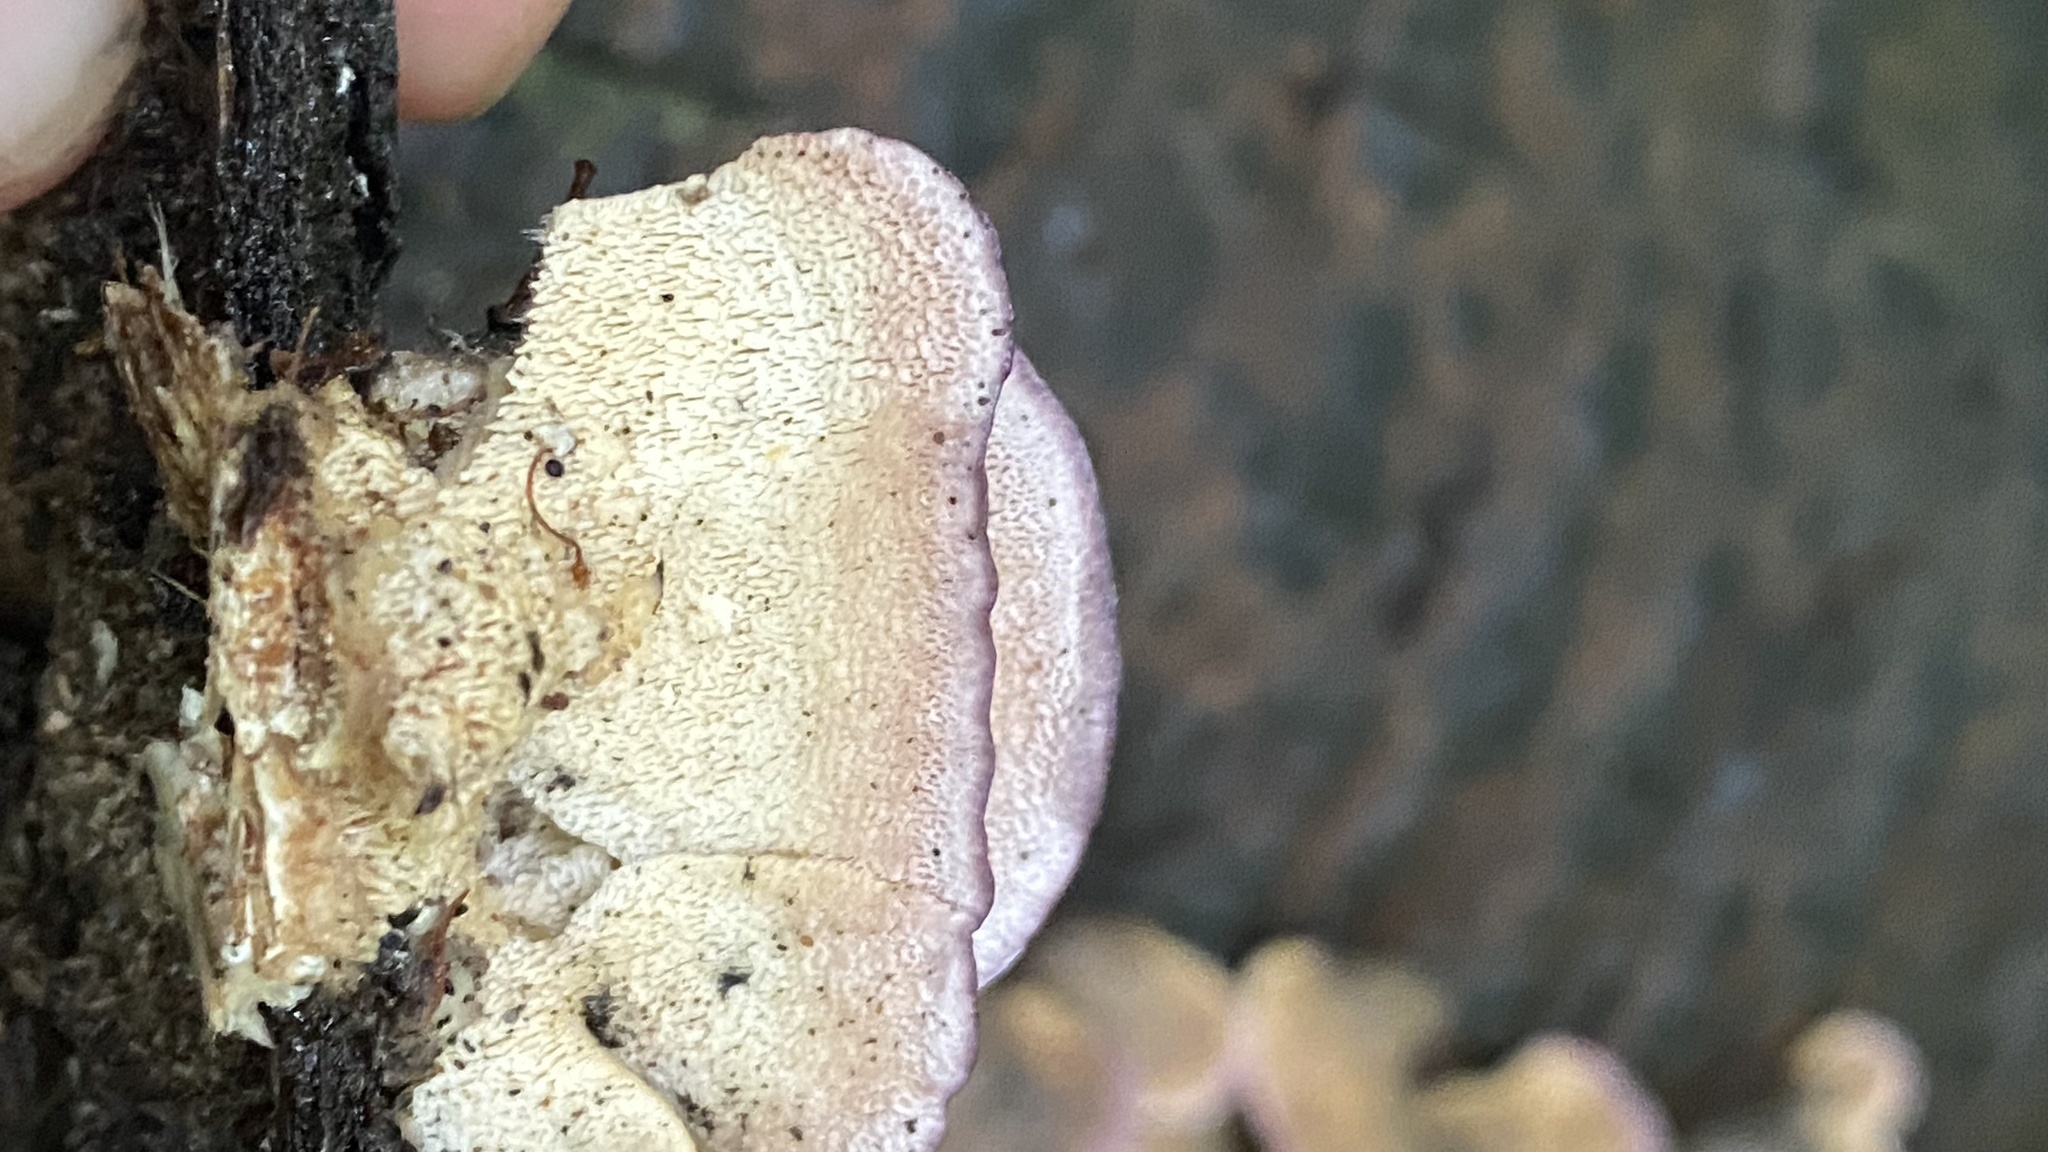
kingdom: Fungi
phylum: Basidiomycota
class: Agaricomycetes
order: Hymenochaetales
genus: Trichaptum
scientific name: Trichaptum biforme
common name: Violet-toothed polypore
